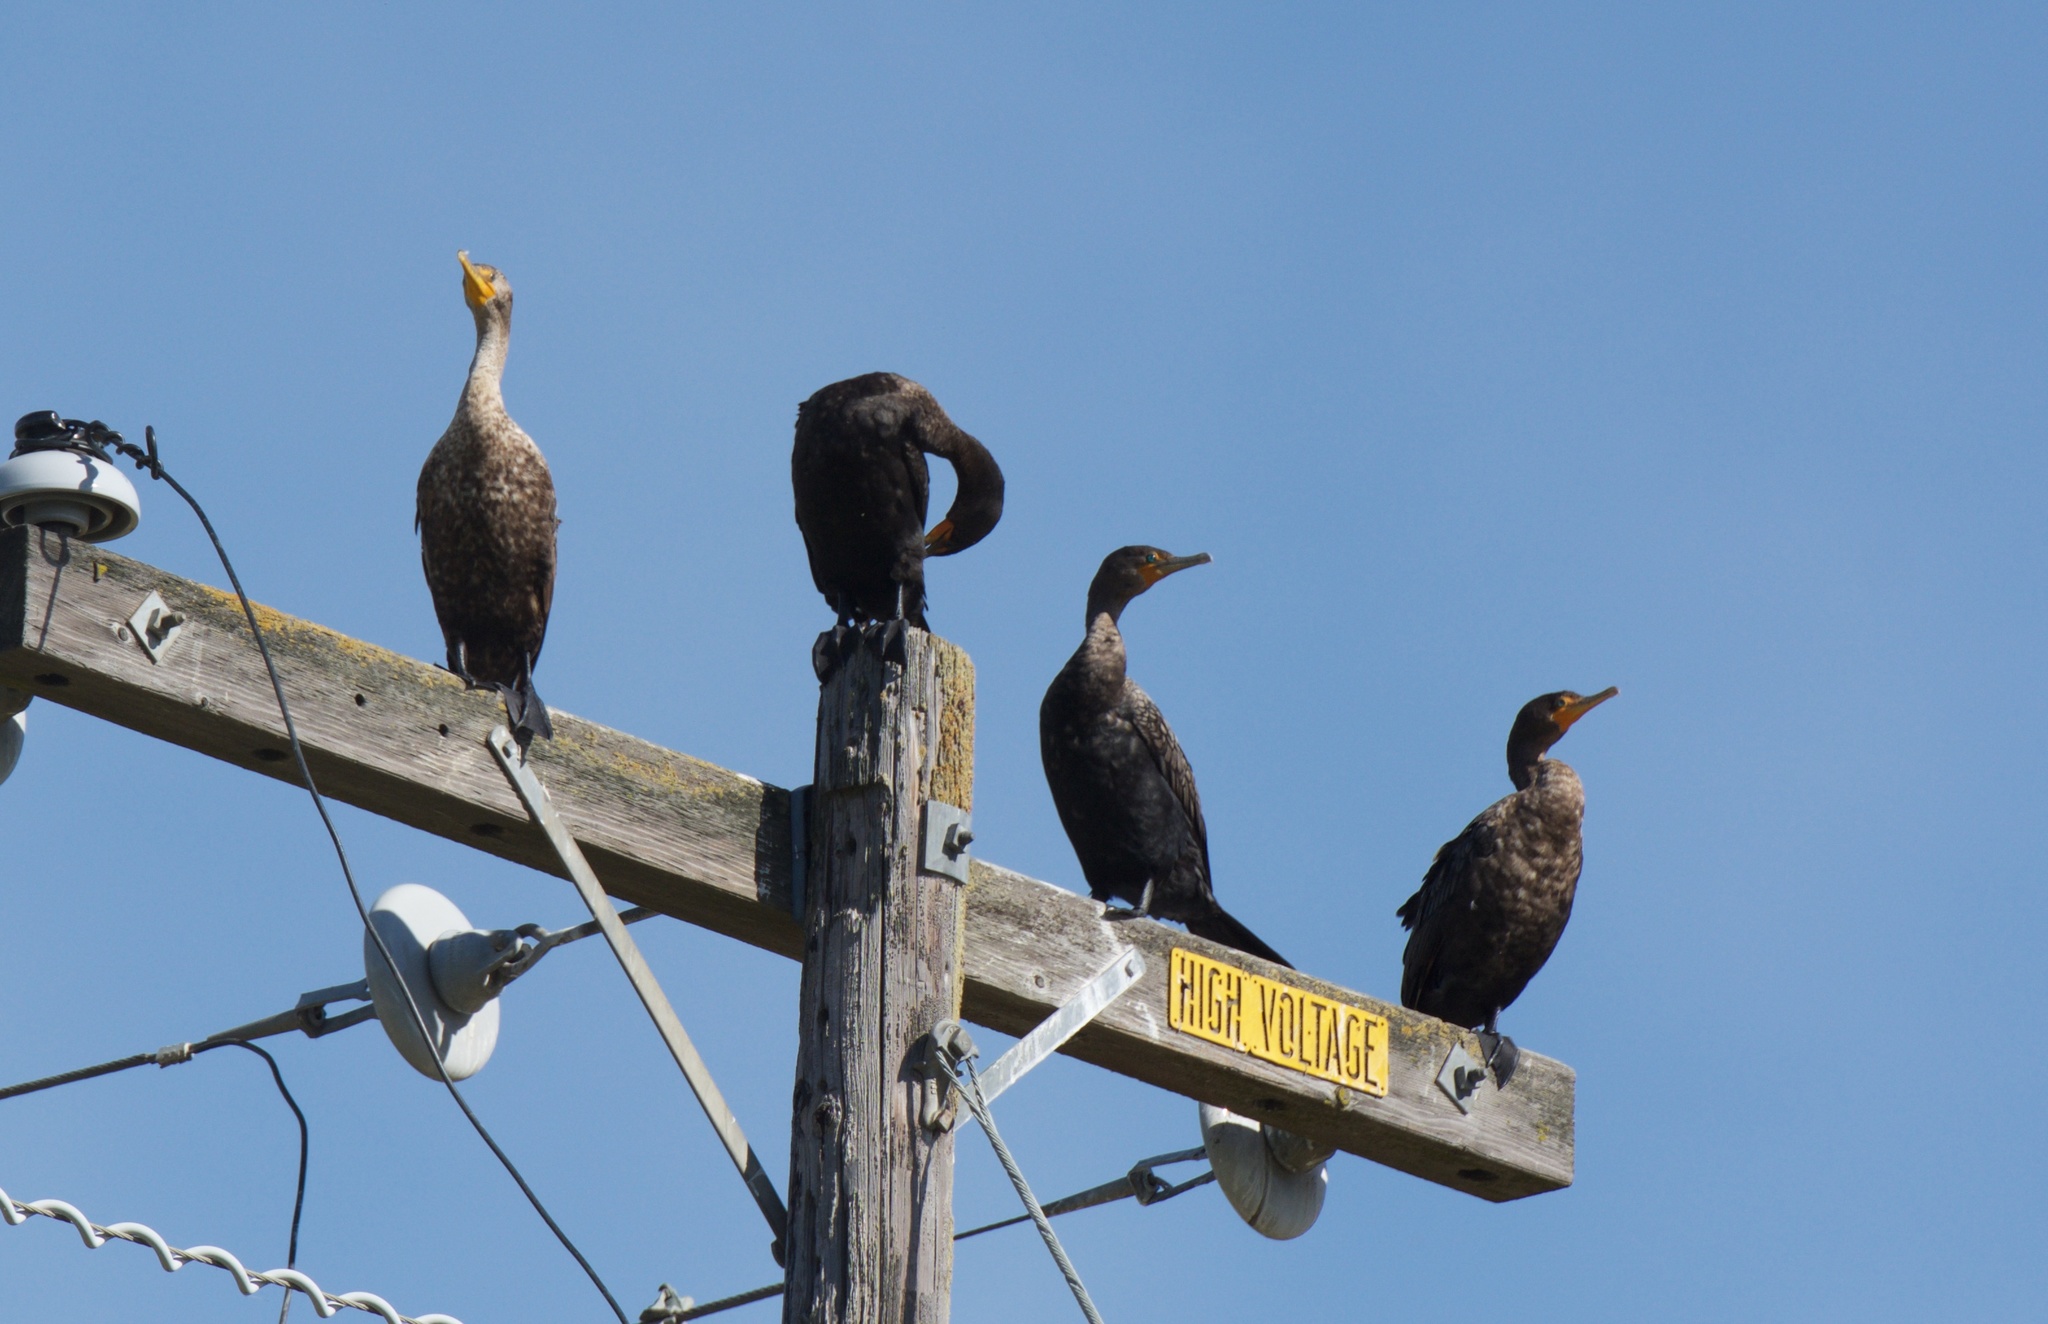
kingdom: Animalia
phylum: Chordata
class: Aves
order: Suliformes
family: Phalacrocoracidae
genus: Phalacrocorax
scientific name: Phalacrocorax auritus
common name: Double-crested cormorant
